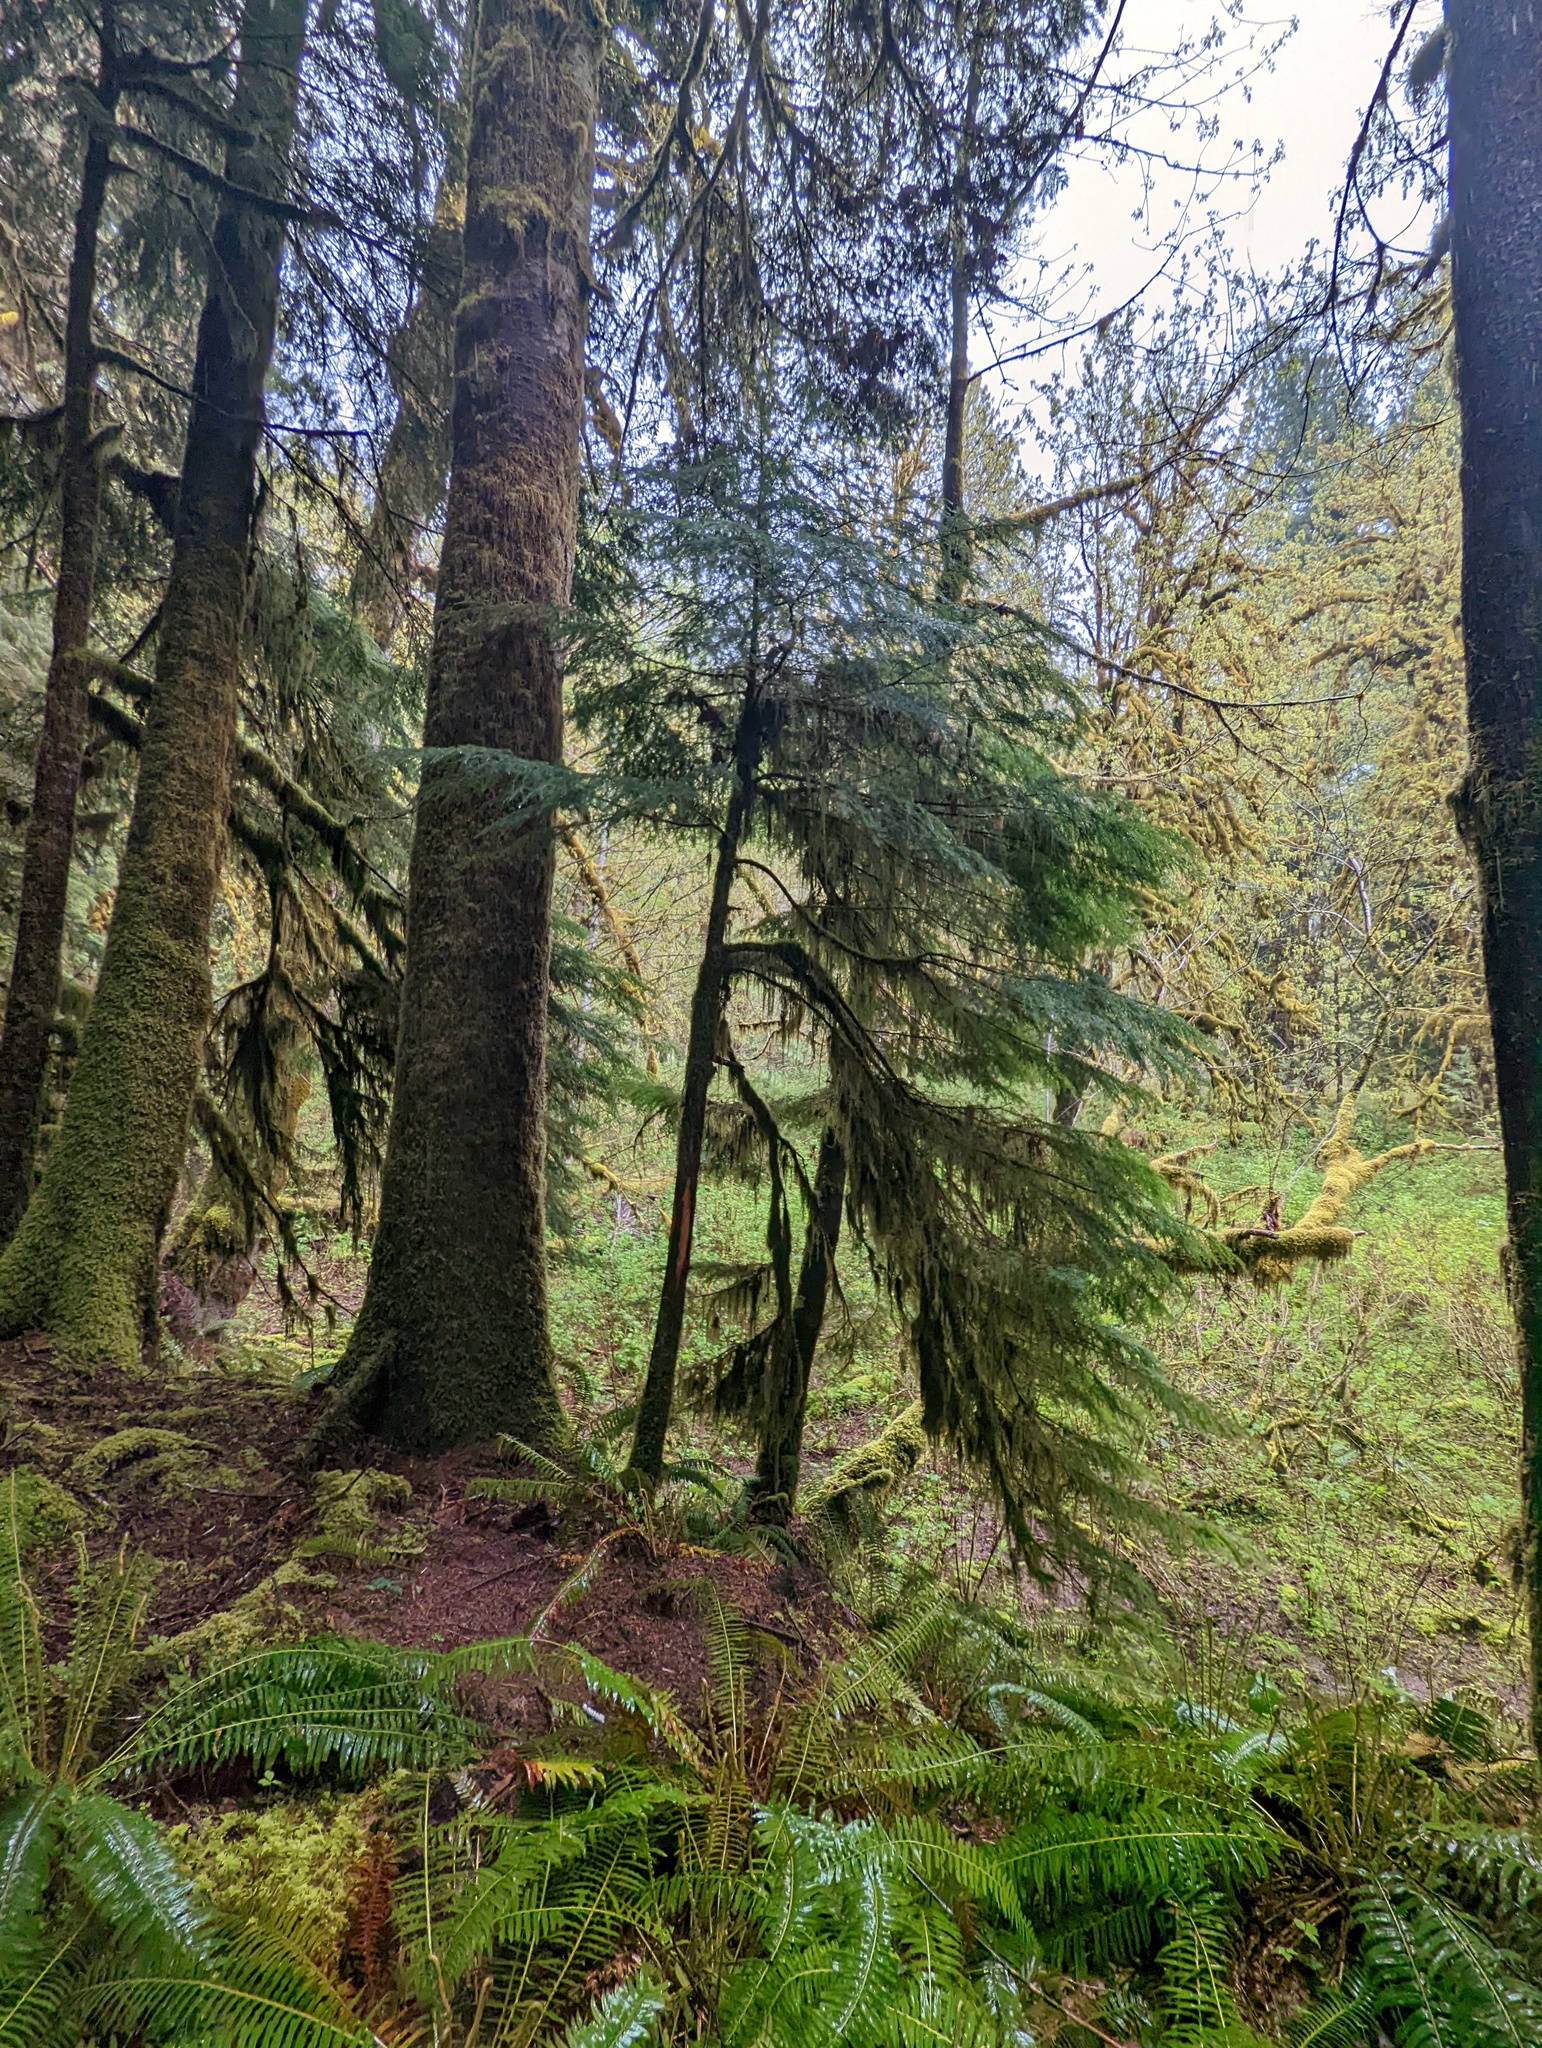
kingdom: Plantae
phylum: Tracheophyta
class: Pinopsida
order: Pinales
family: Pinaceae
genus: Tsuga
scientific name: Tsuga heterophylla
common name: Western hemlock
